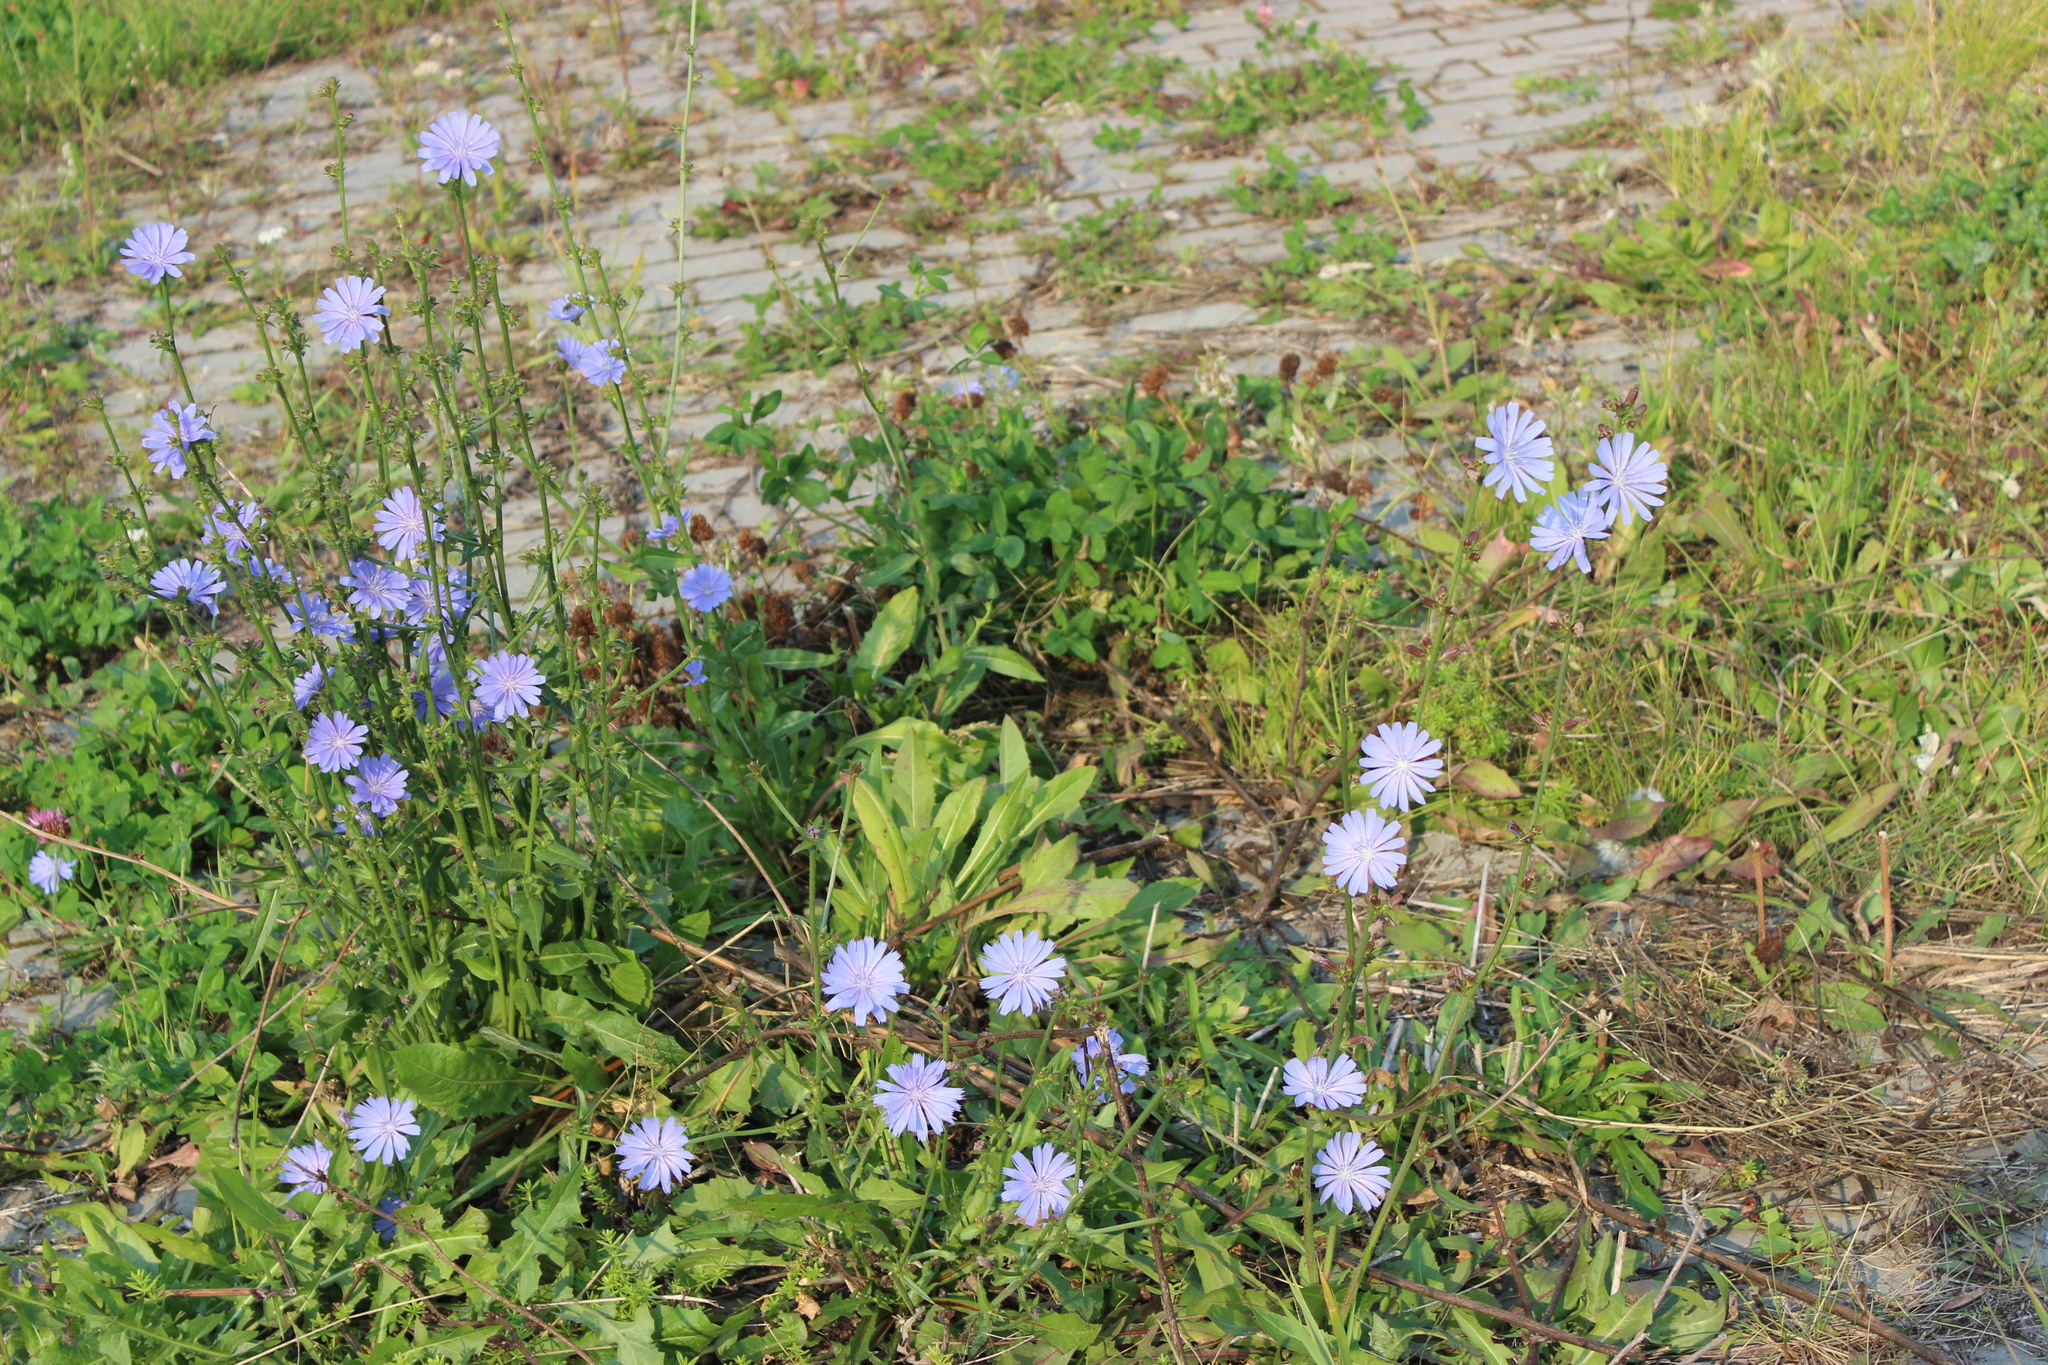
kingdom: Plantae
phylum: Tracheophyta
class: Magnoliopsida
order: Asterales
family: Asteraceae
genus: Cichorium
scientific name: Cichorium intybus
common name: Chicory
